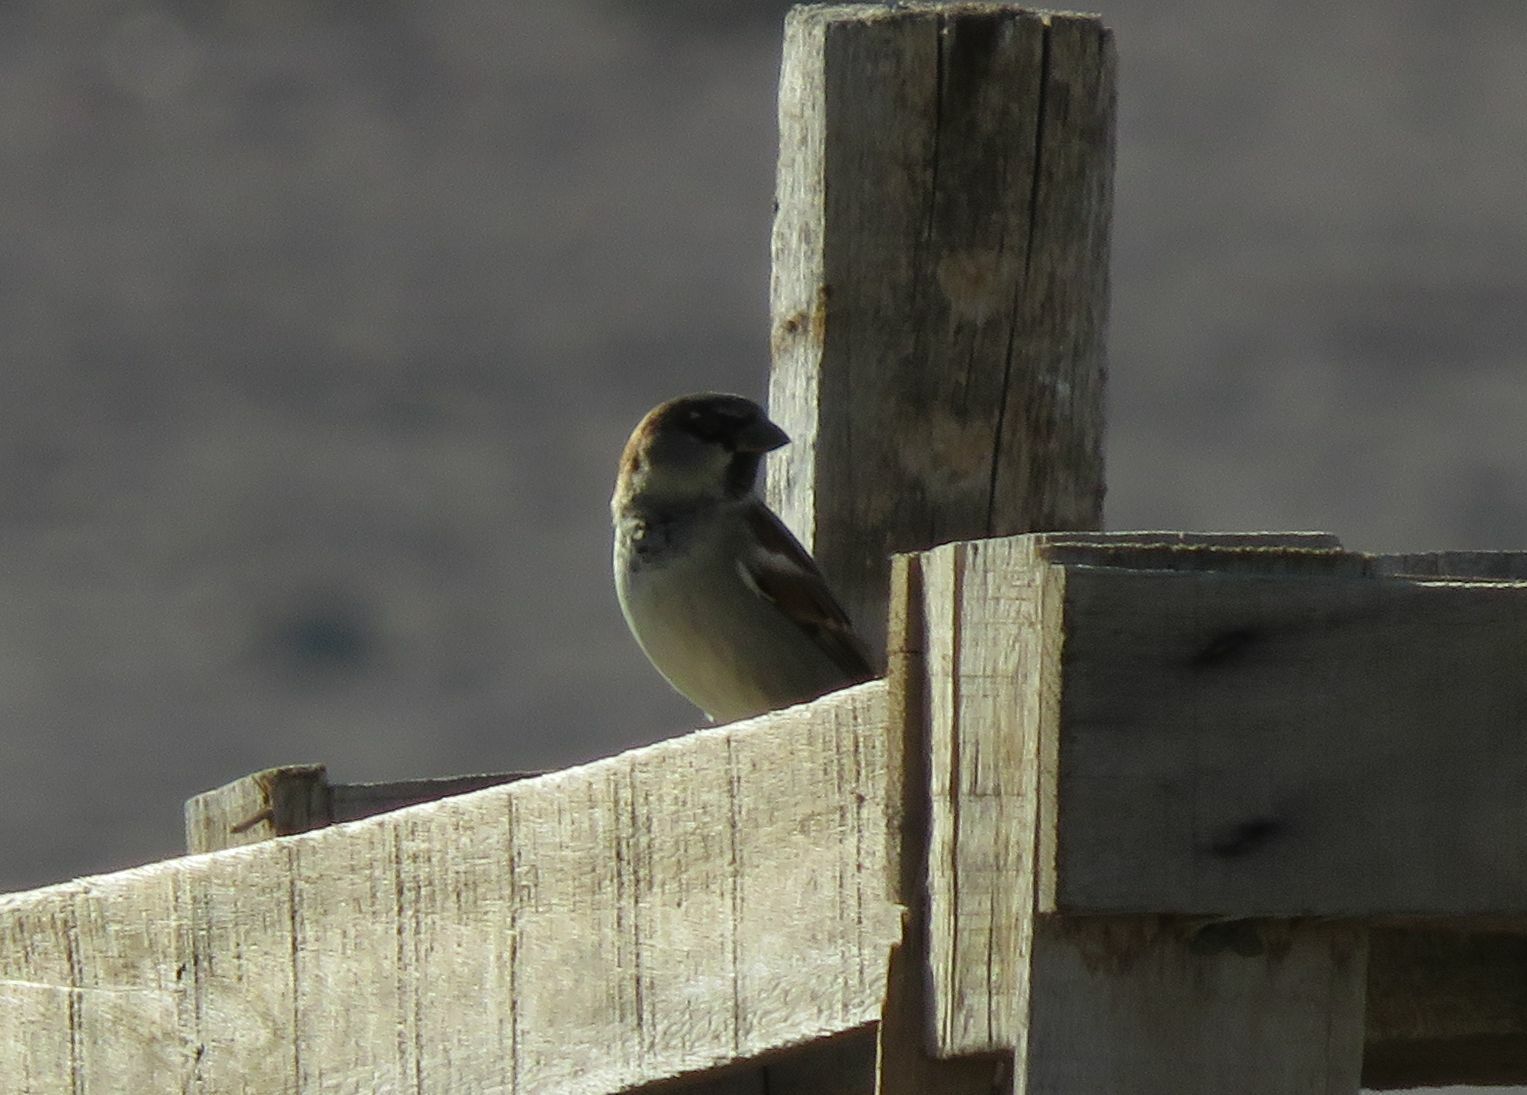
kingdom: Animalia
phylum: Chordata
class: Aves
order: Passeriformes
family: Passeridae
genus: Passer
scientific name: Passer domesticus
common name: House sparrow
